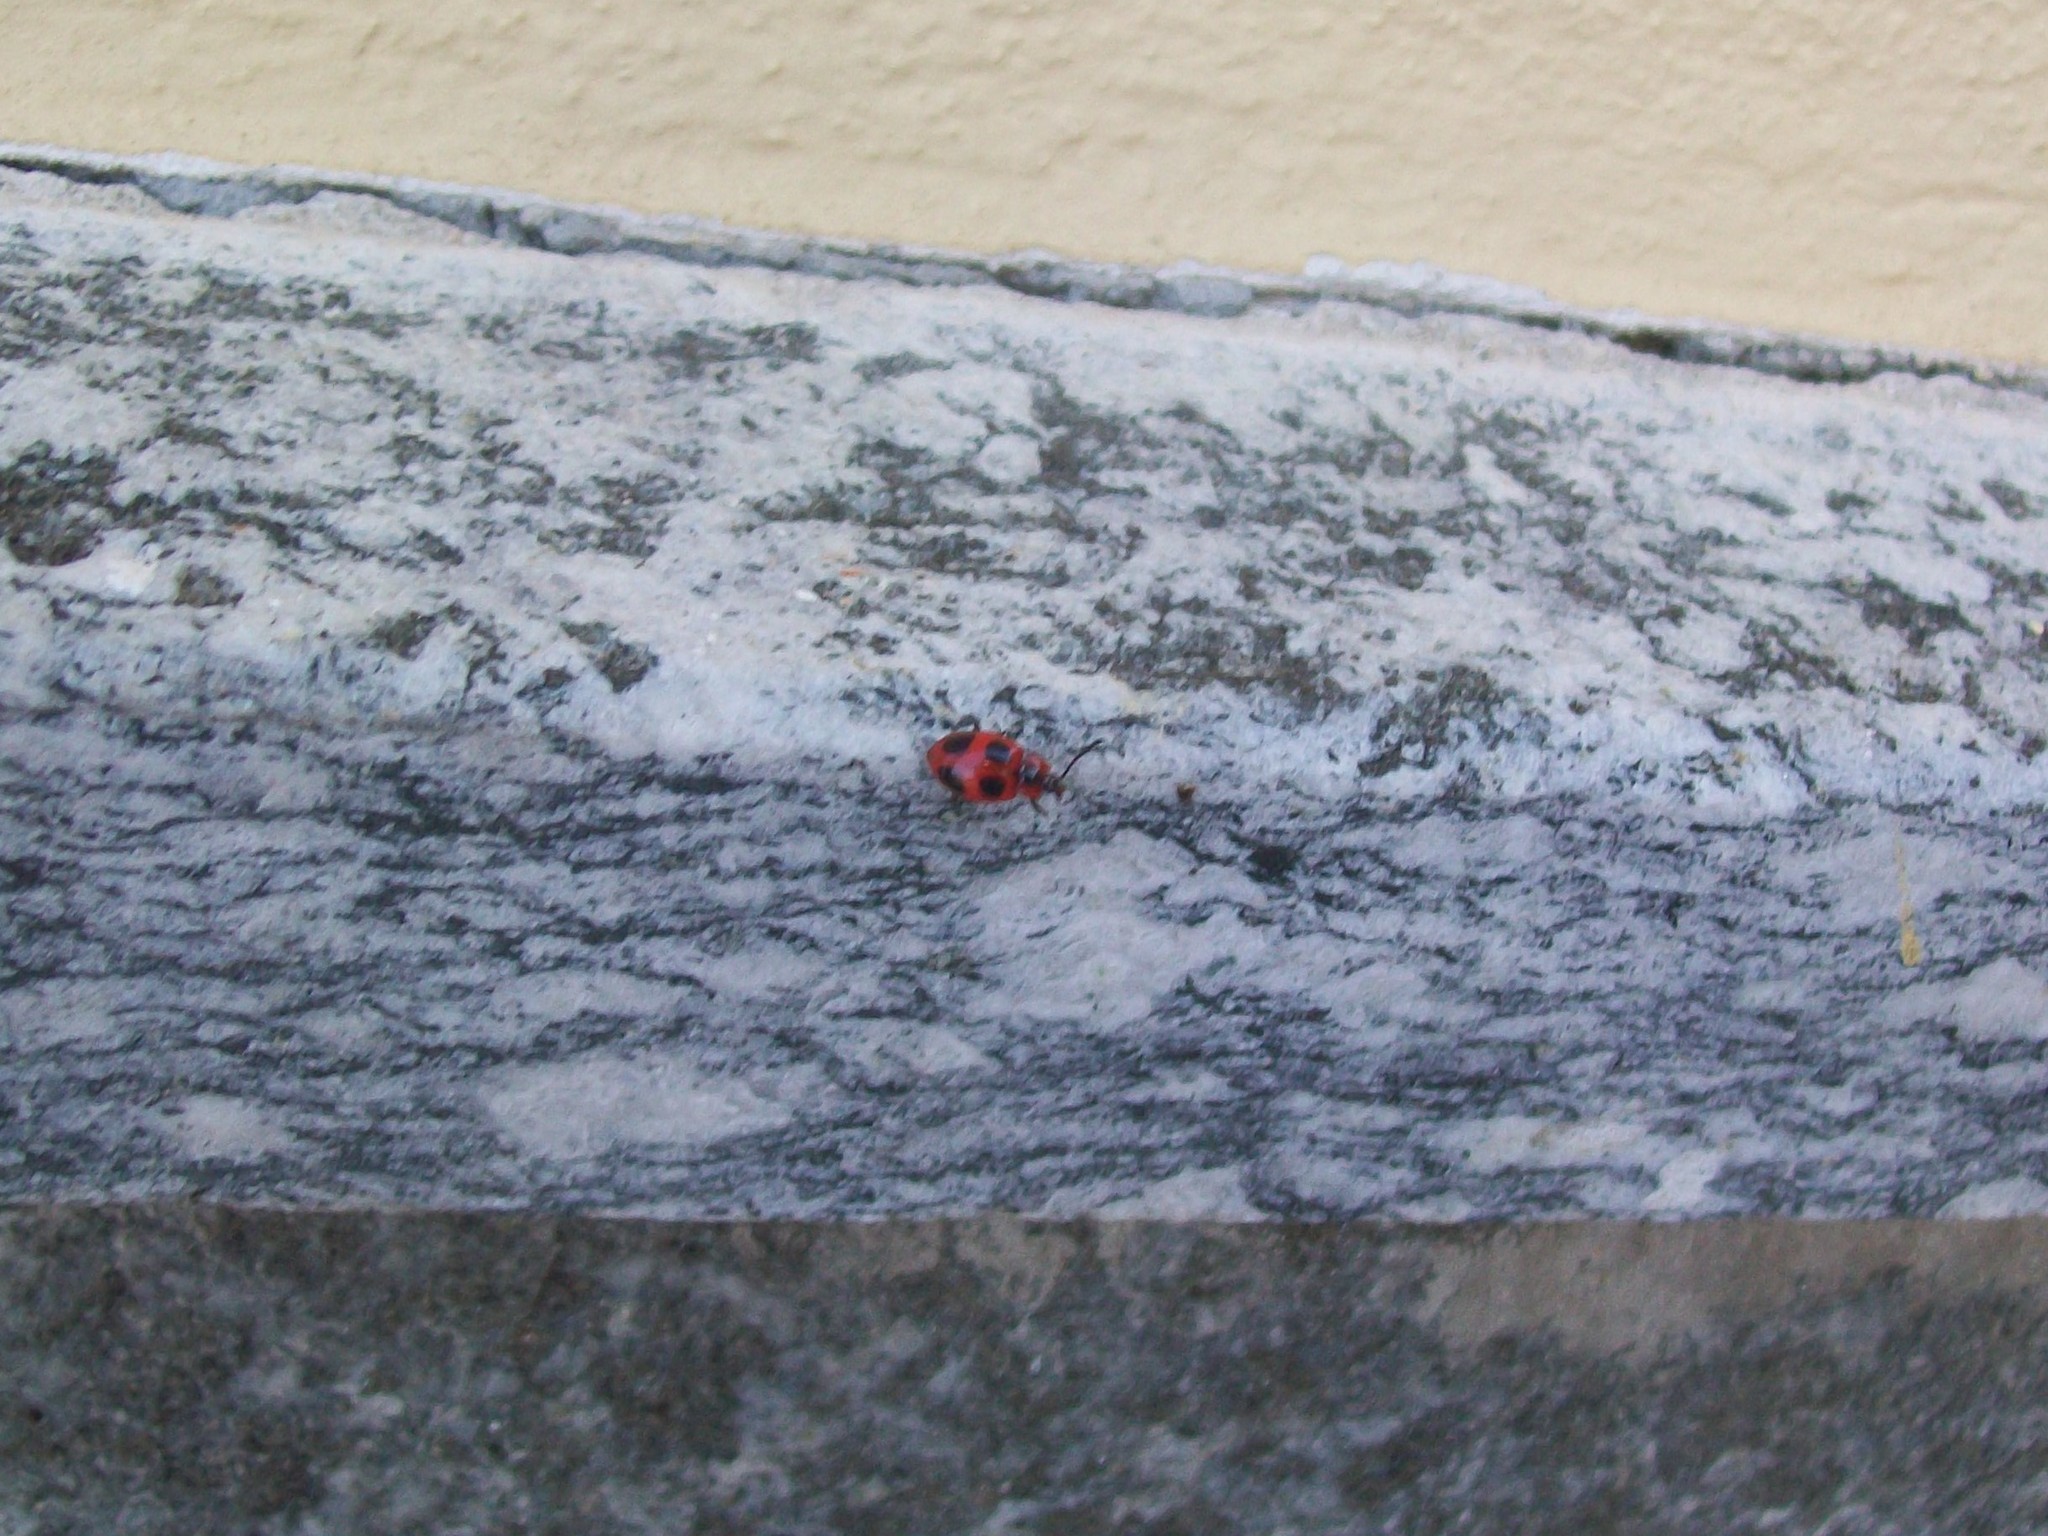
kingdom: Animalia
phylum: Arthropoda
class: Insecta
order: Coleoptera
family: Endomychidae
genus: Endomychus
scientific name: Endomychus coccineus
